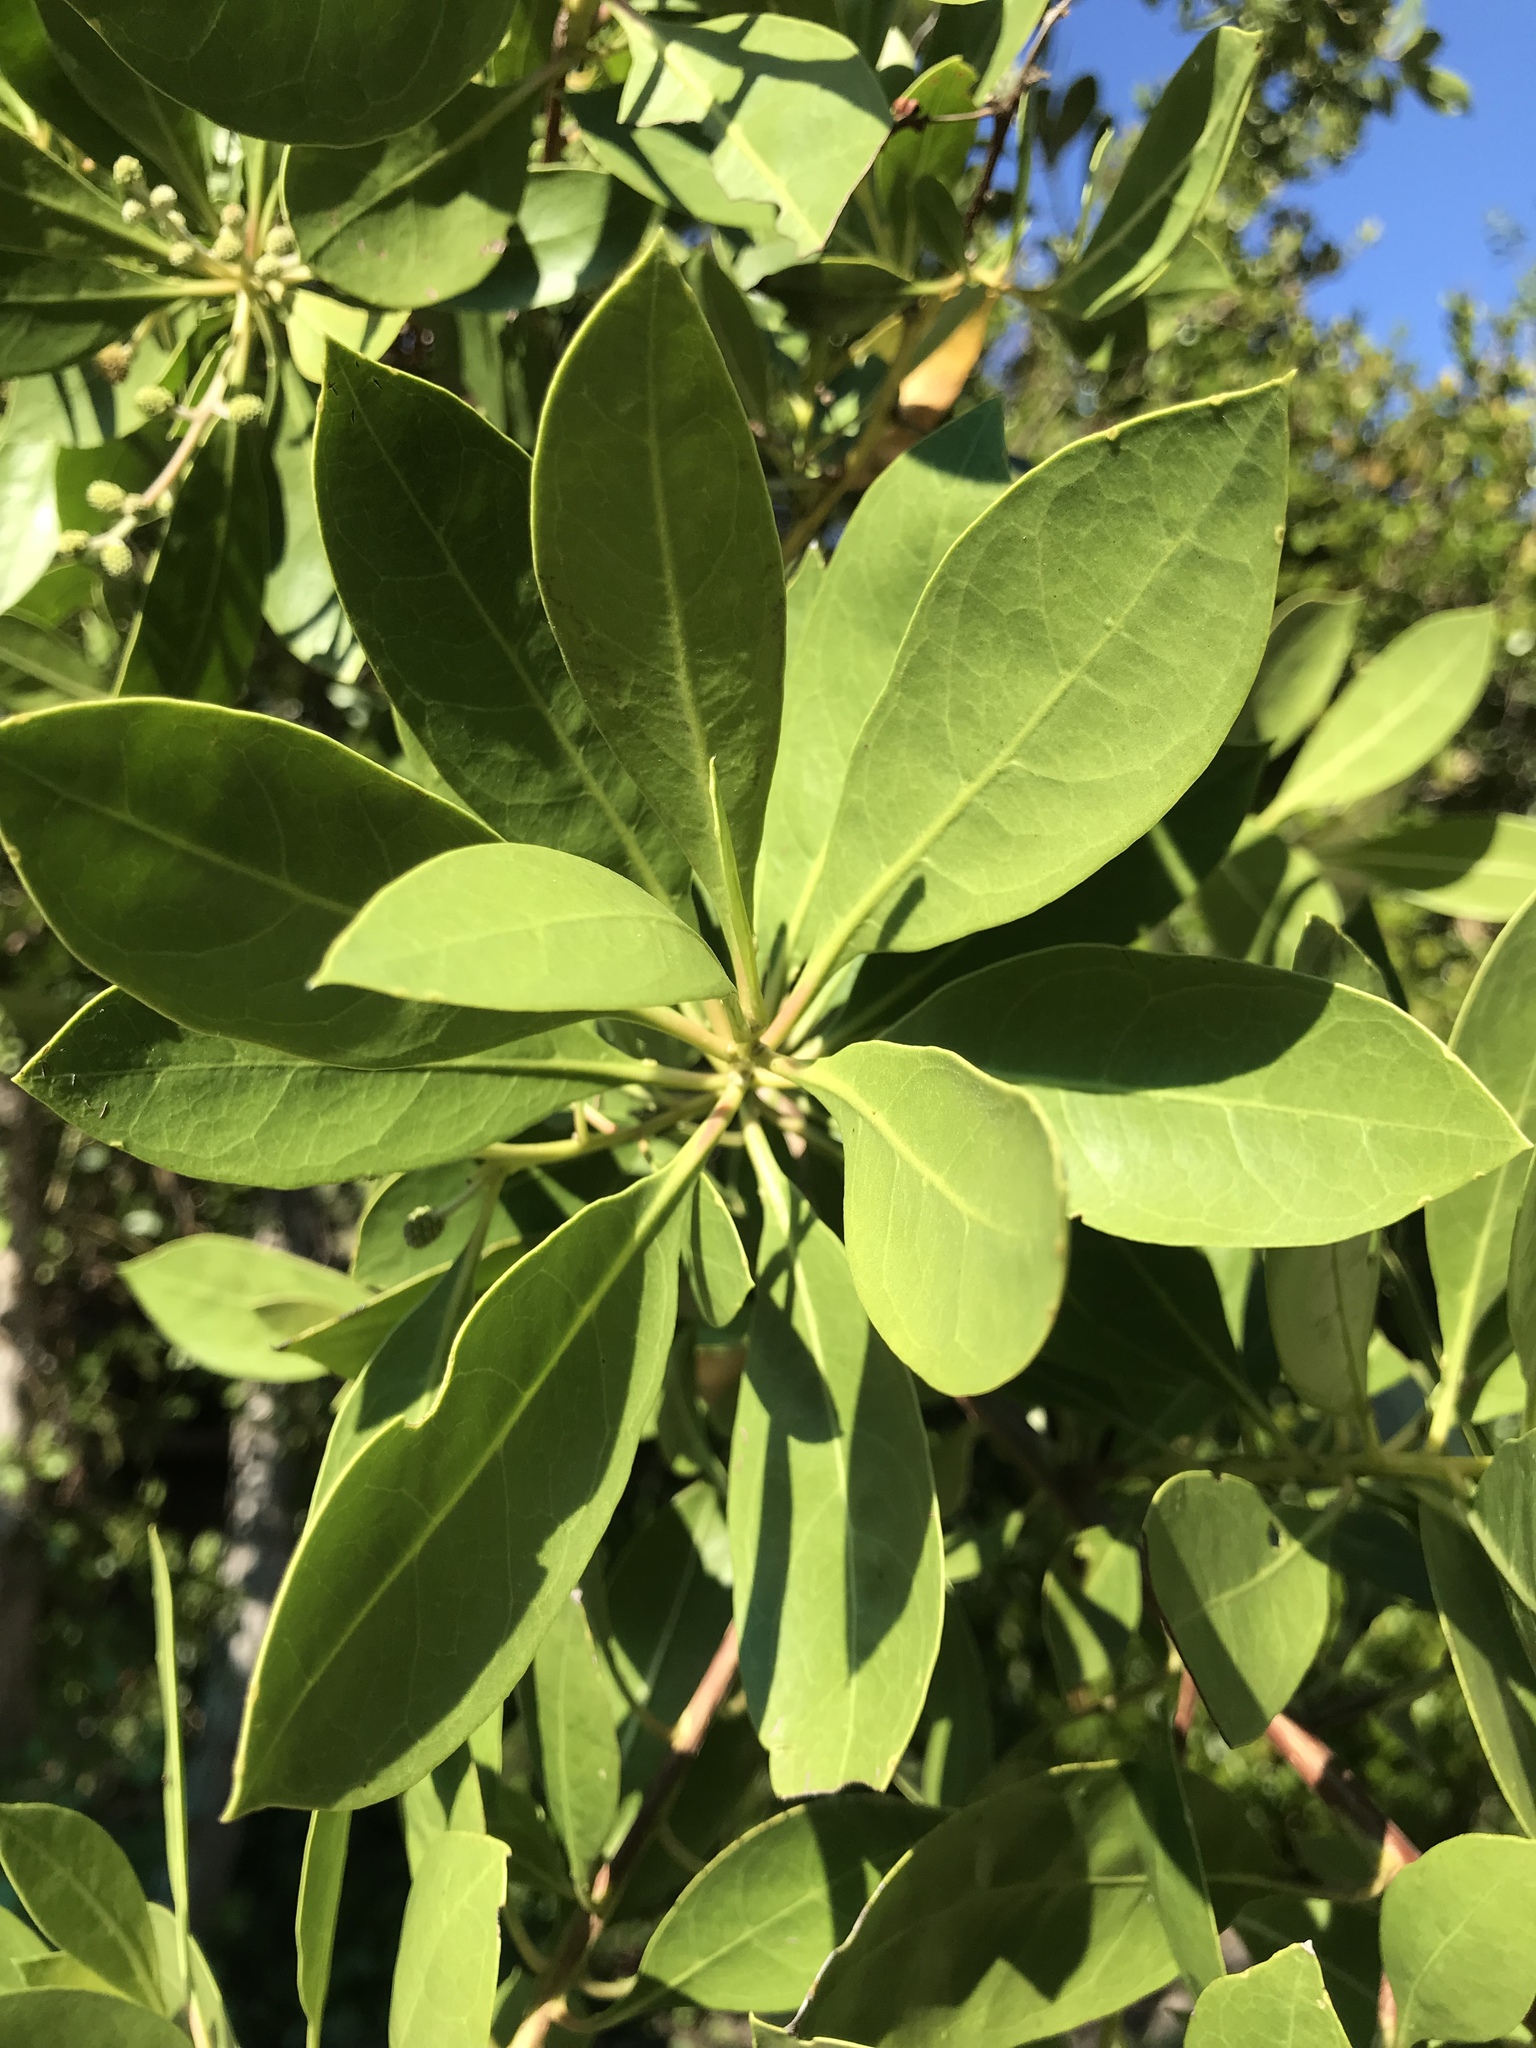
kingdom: Plantae
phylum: Tracheophyta
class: Magnoliopsida
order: Myrtales
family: Combretaceae
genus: Conocarpus
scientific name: Conocarpus erectus
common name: Button mangrove
